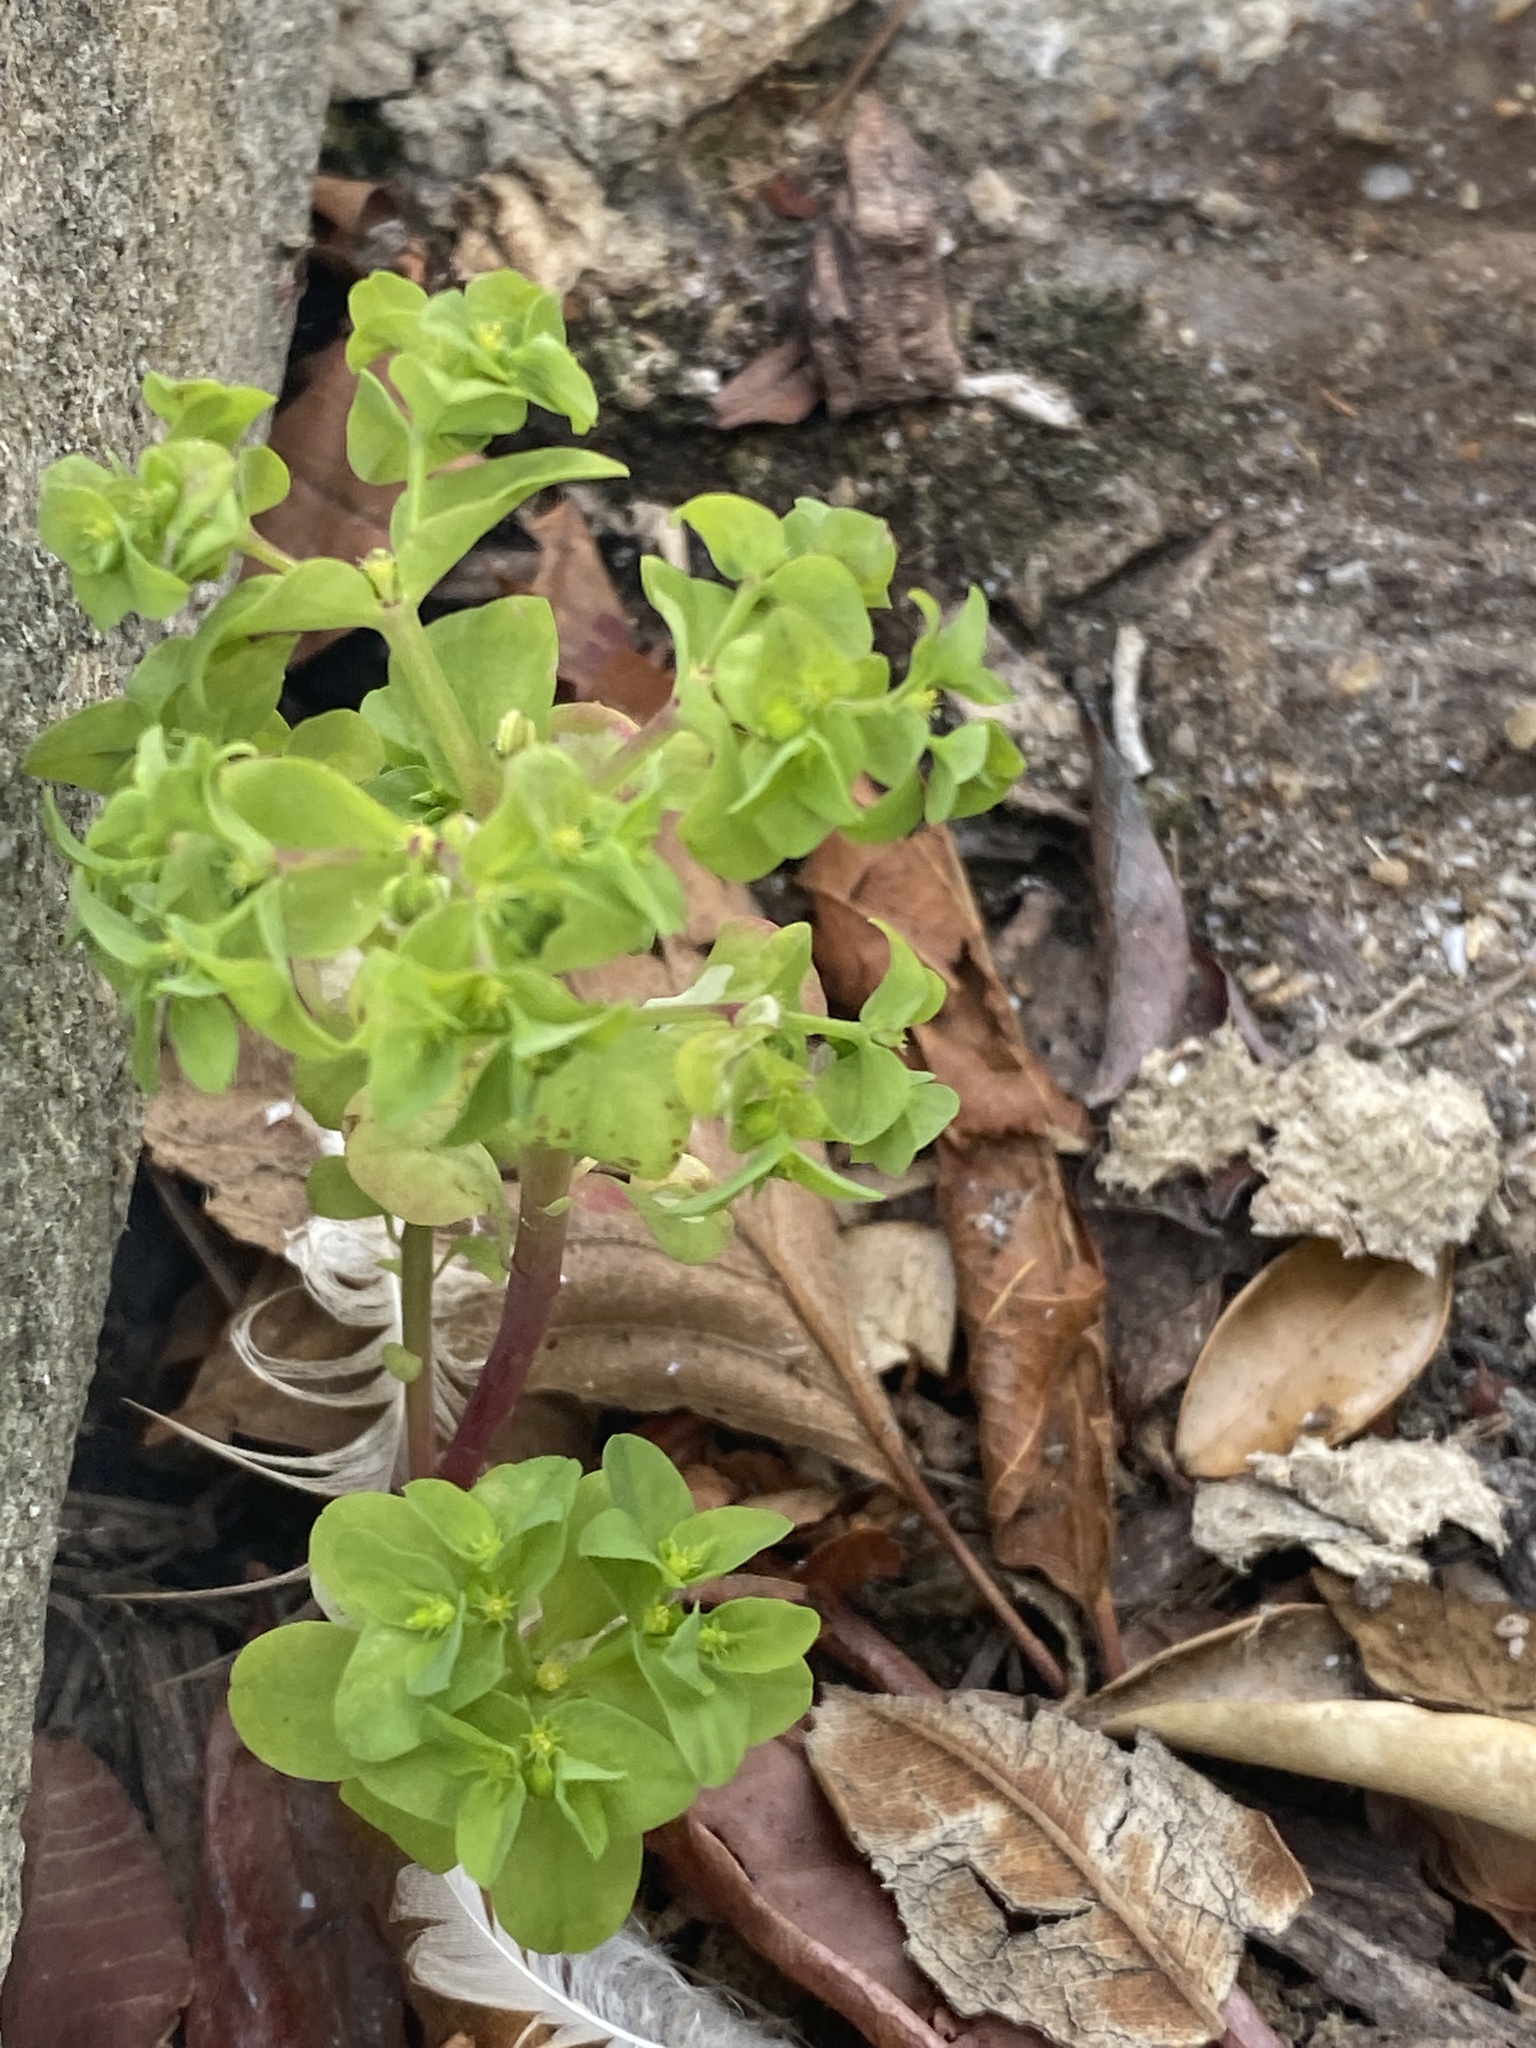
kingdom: Plantae
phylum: Tracheophyta
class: Magnoliopsida
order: Malpighiales
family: Euphorbiaceae
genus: Euphorbia
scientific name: Euphorbia peplus
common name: Petty spurge
